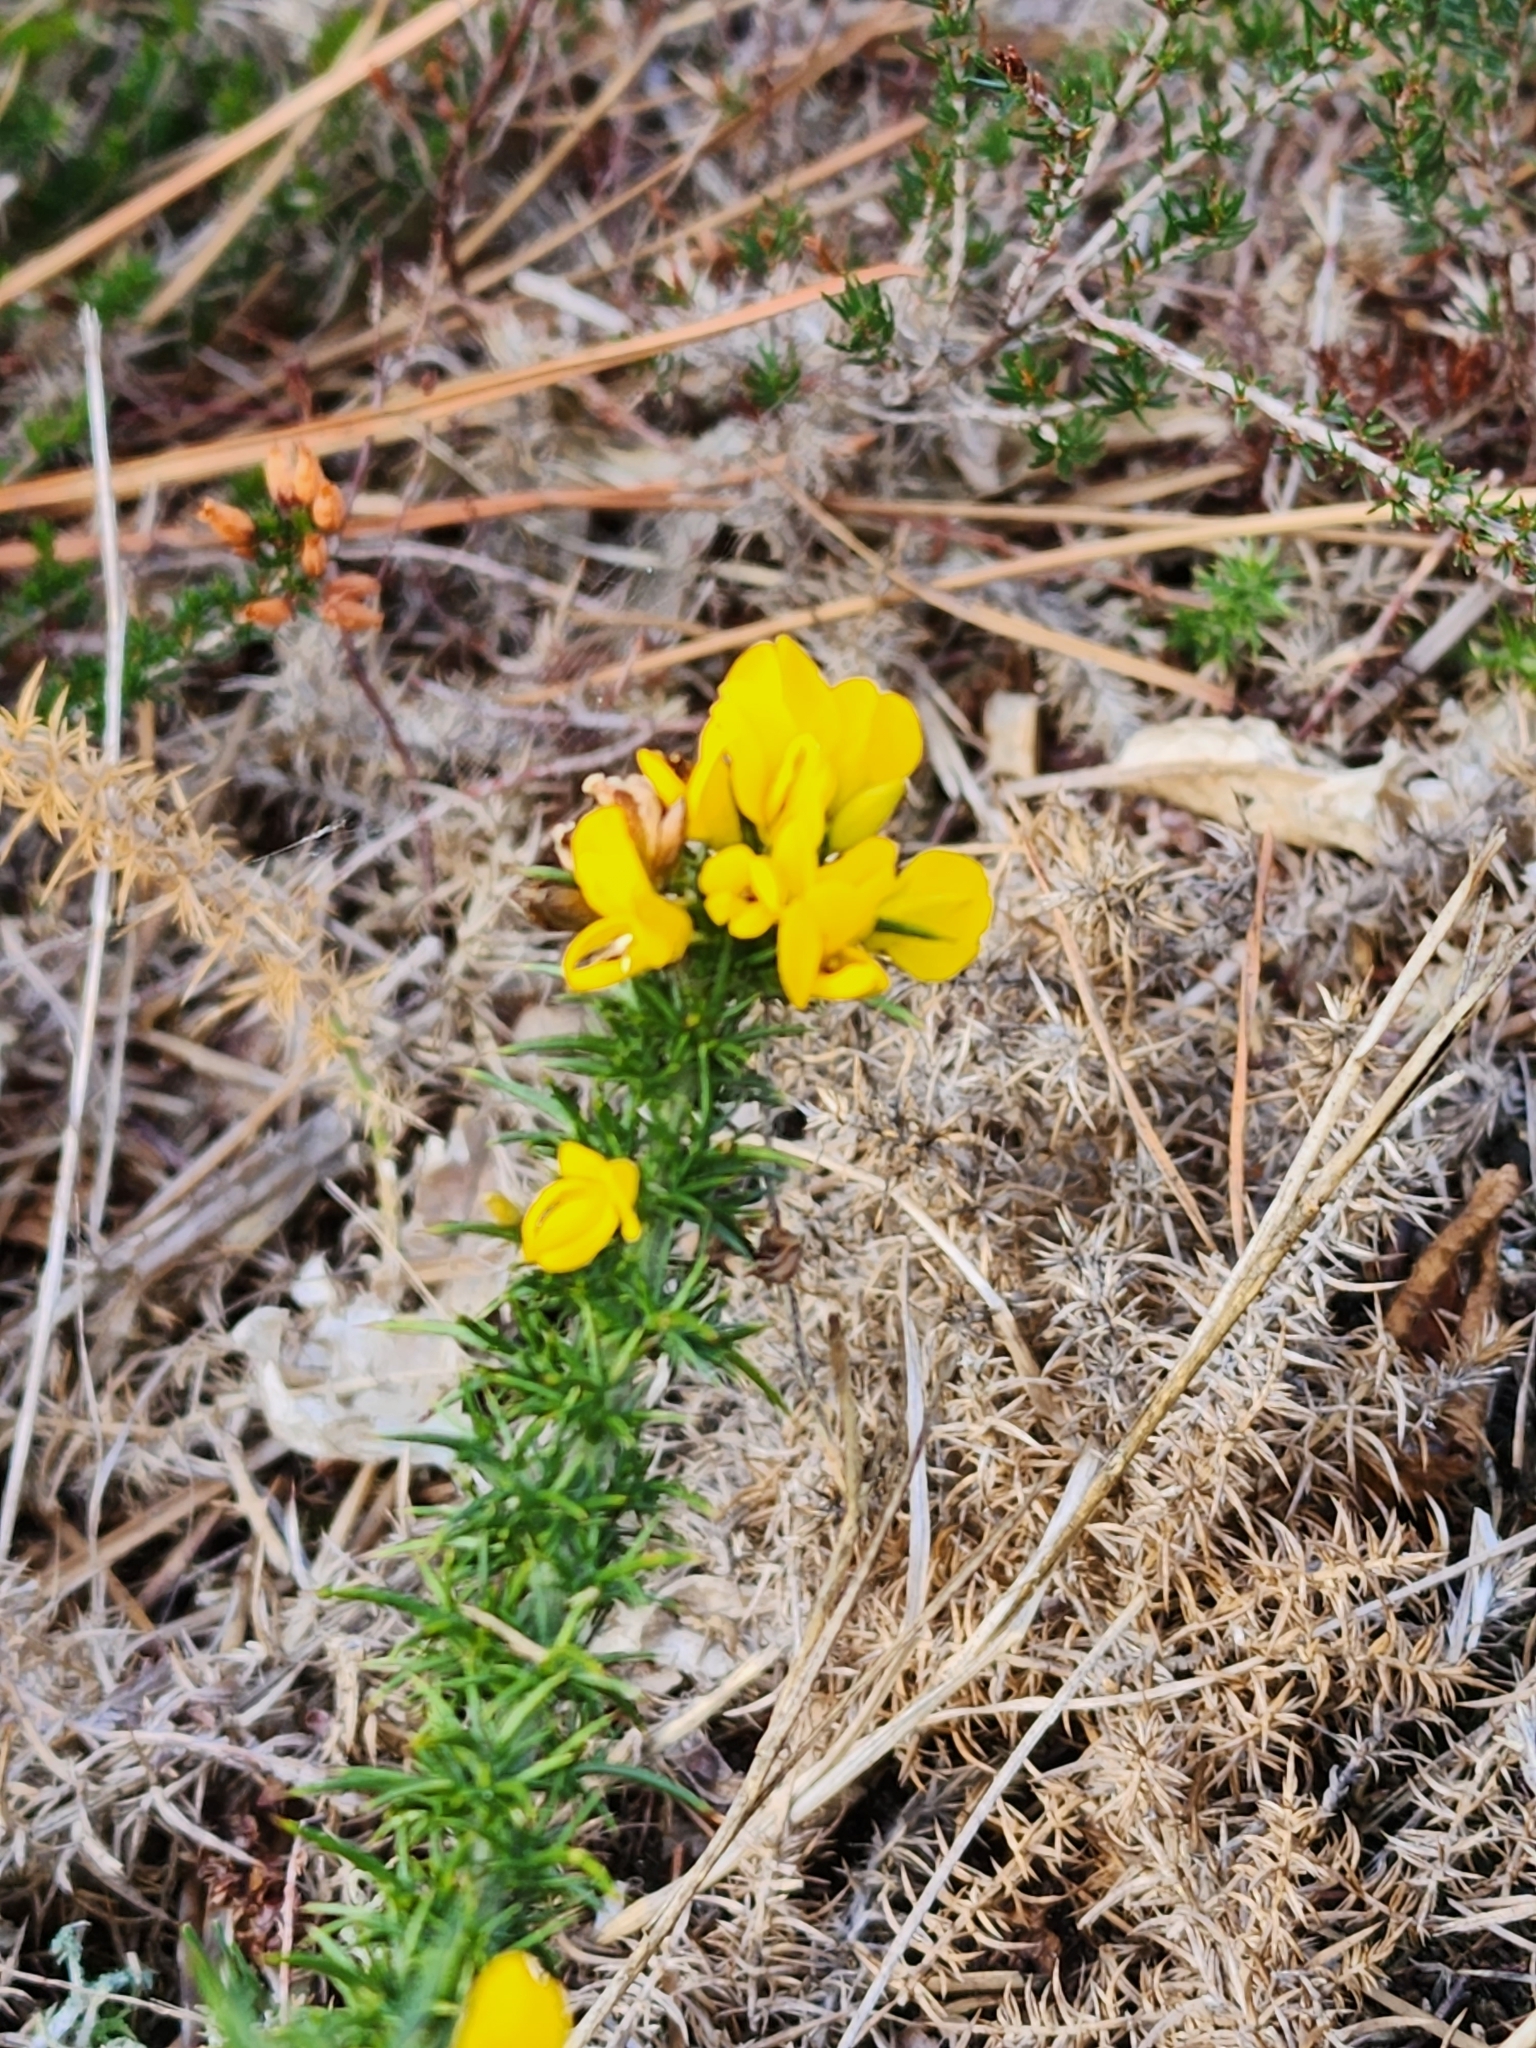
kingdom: Plantae
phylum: Tracheophyta
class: Magnoliopsida
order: Fabales
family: Fabaceae
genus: Ulex
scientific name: Ulex minor
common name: Dwarf gorse
